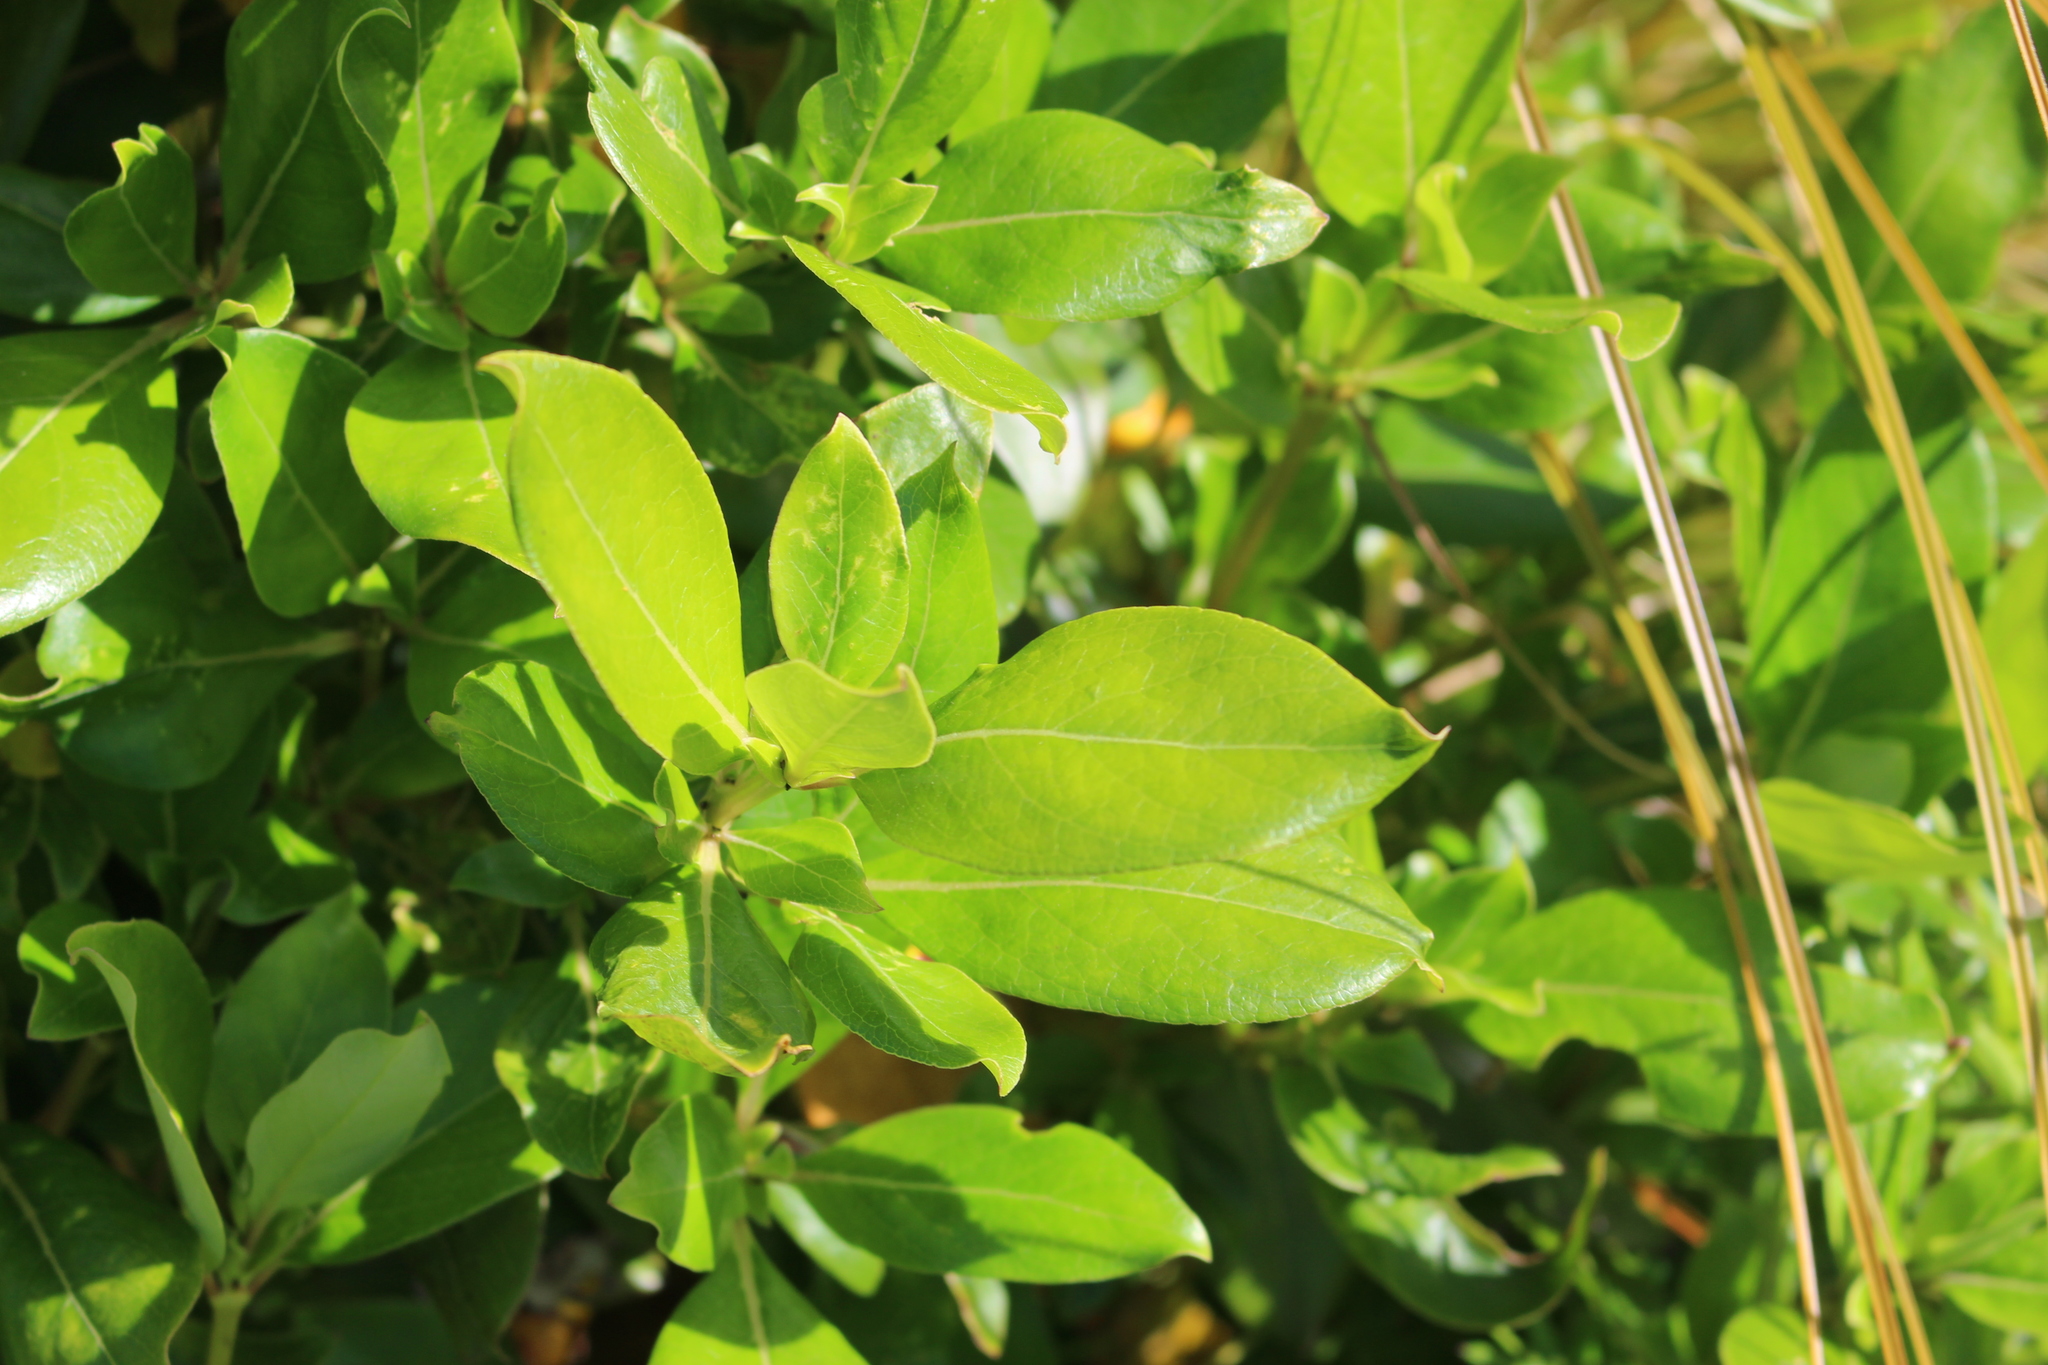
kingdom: Plantae
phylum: Tracheophyta
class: Magnoliopsida
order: Gentianales
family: Rubiaceae
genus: Coprosma
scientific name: Coprosma robusta
